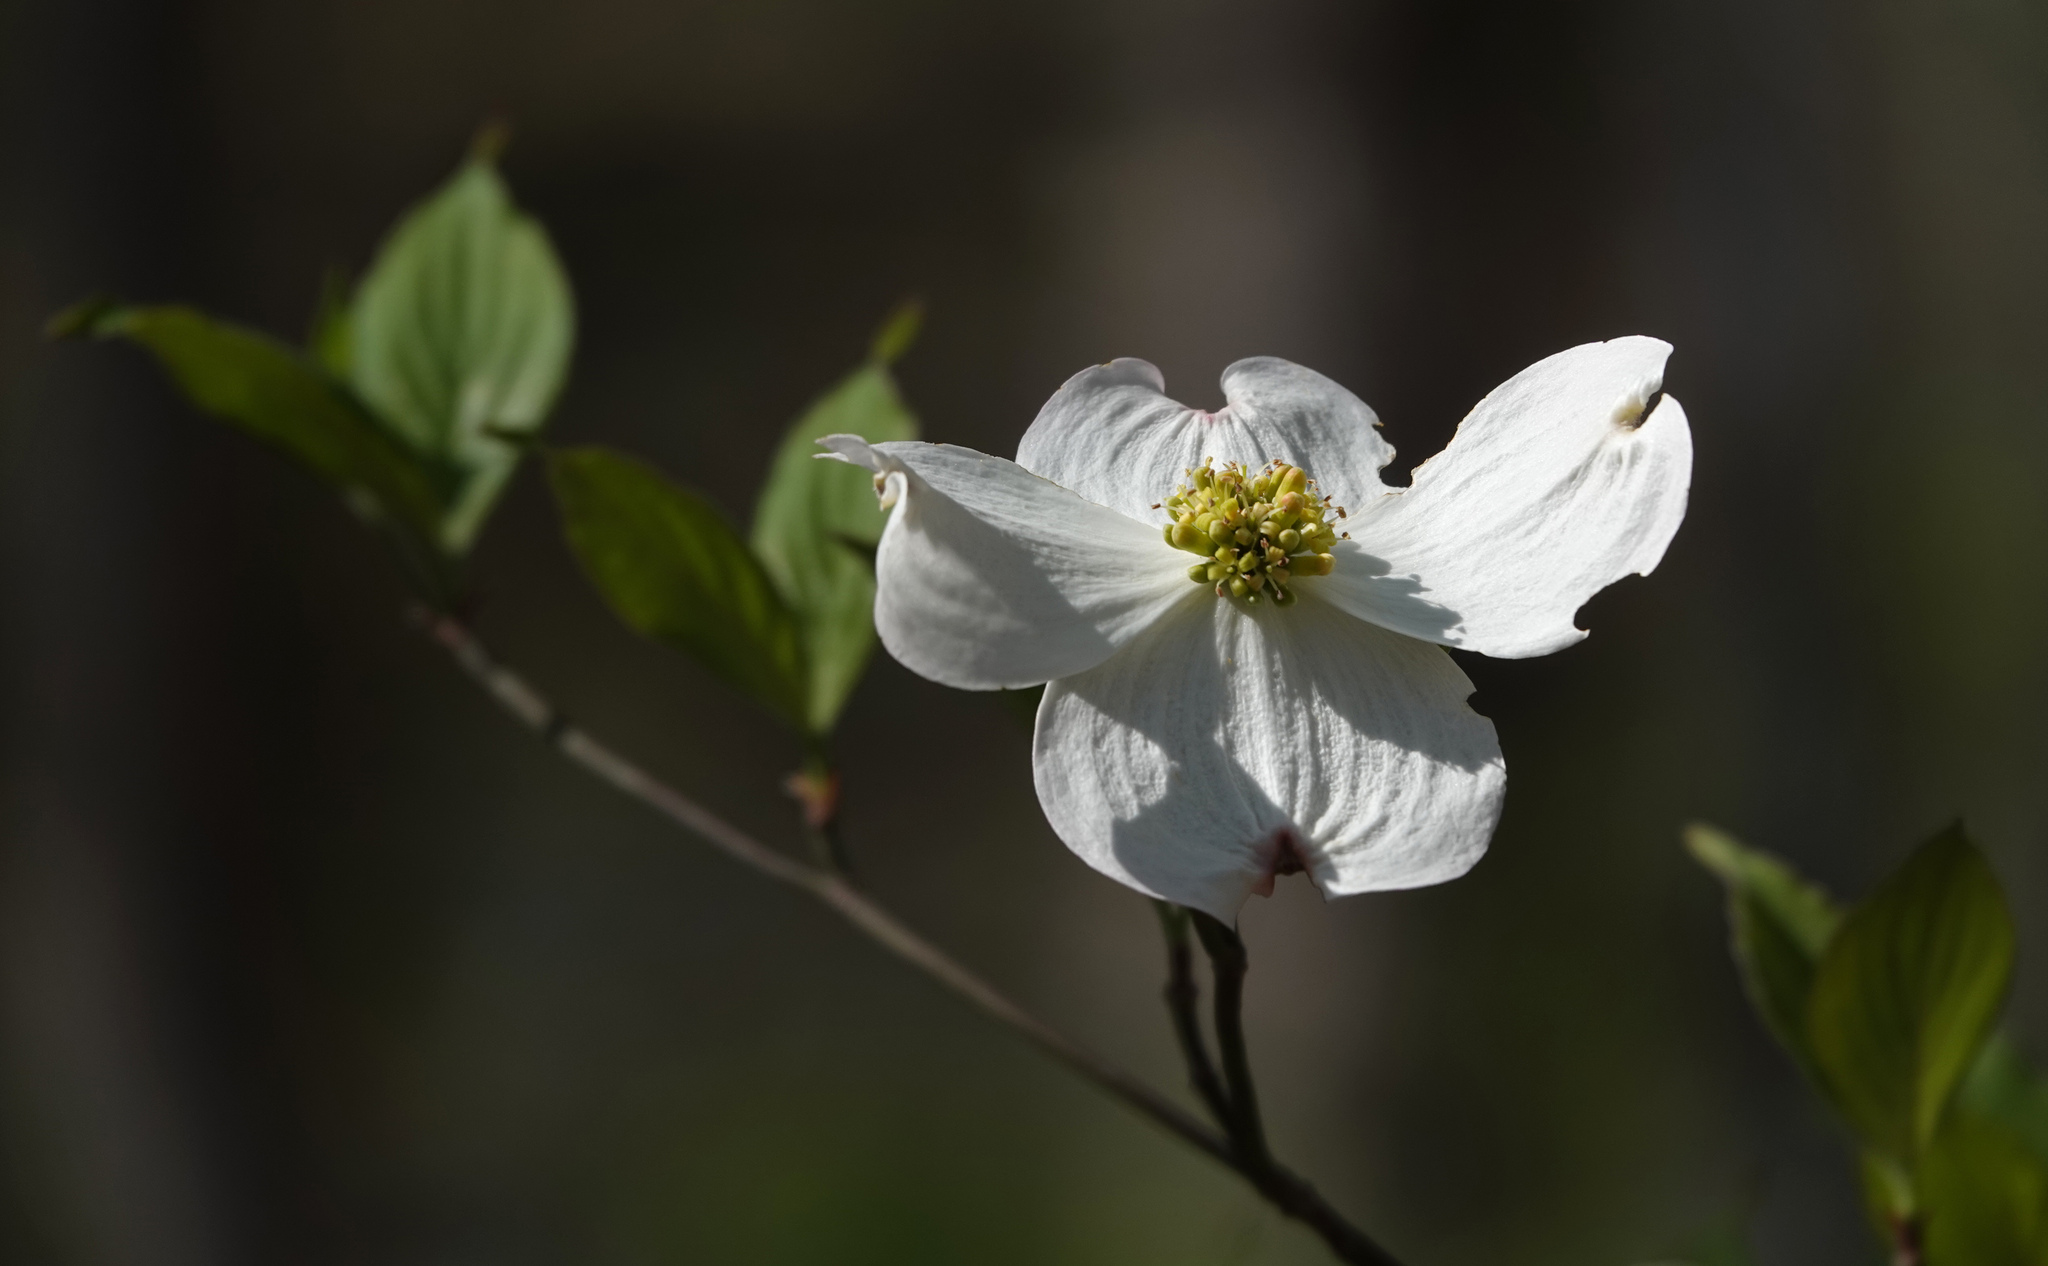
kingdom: Plantae
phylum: Tracheophyta
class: Magnoliopsida
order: Cornales
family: Cornaceae
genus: Cornus
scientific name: Cornus florida
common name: Flowering dogwood
